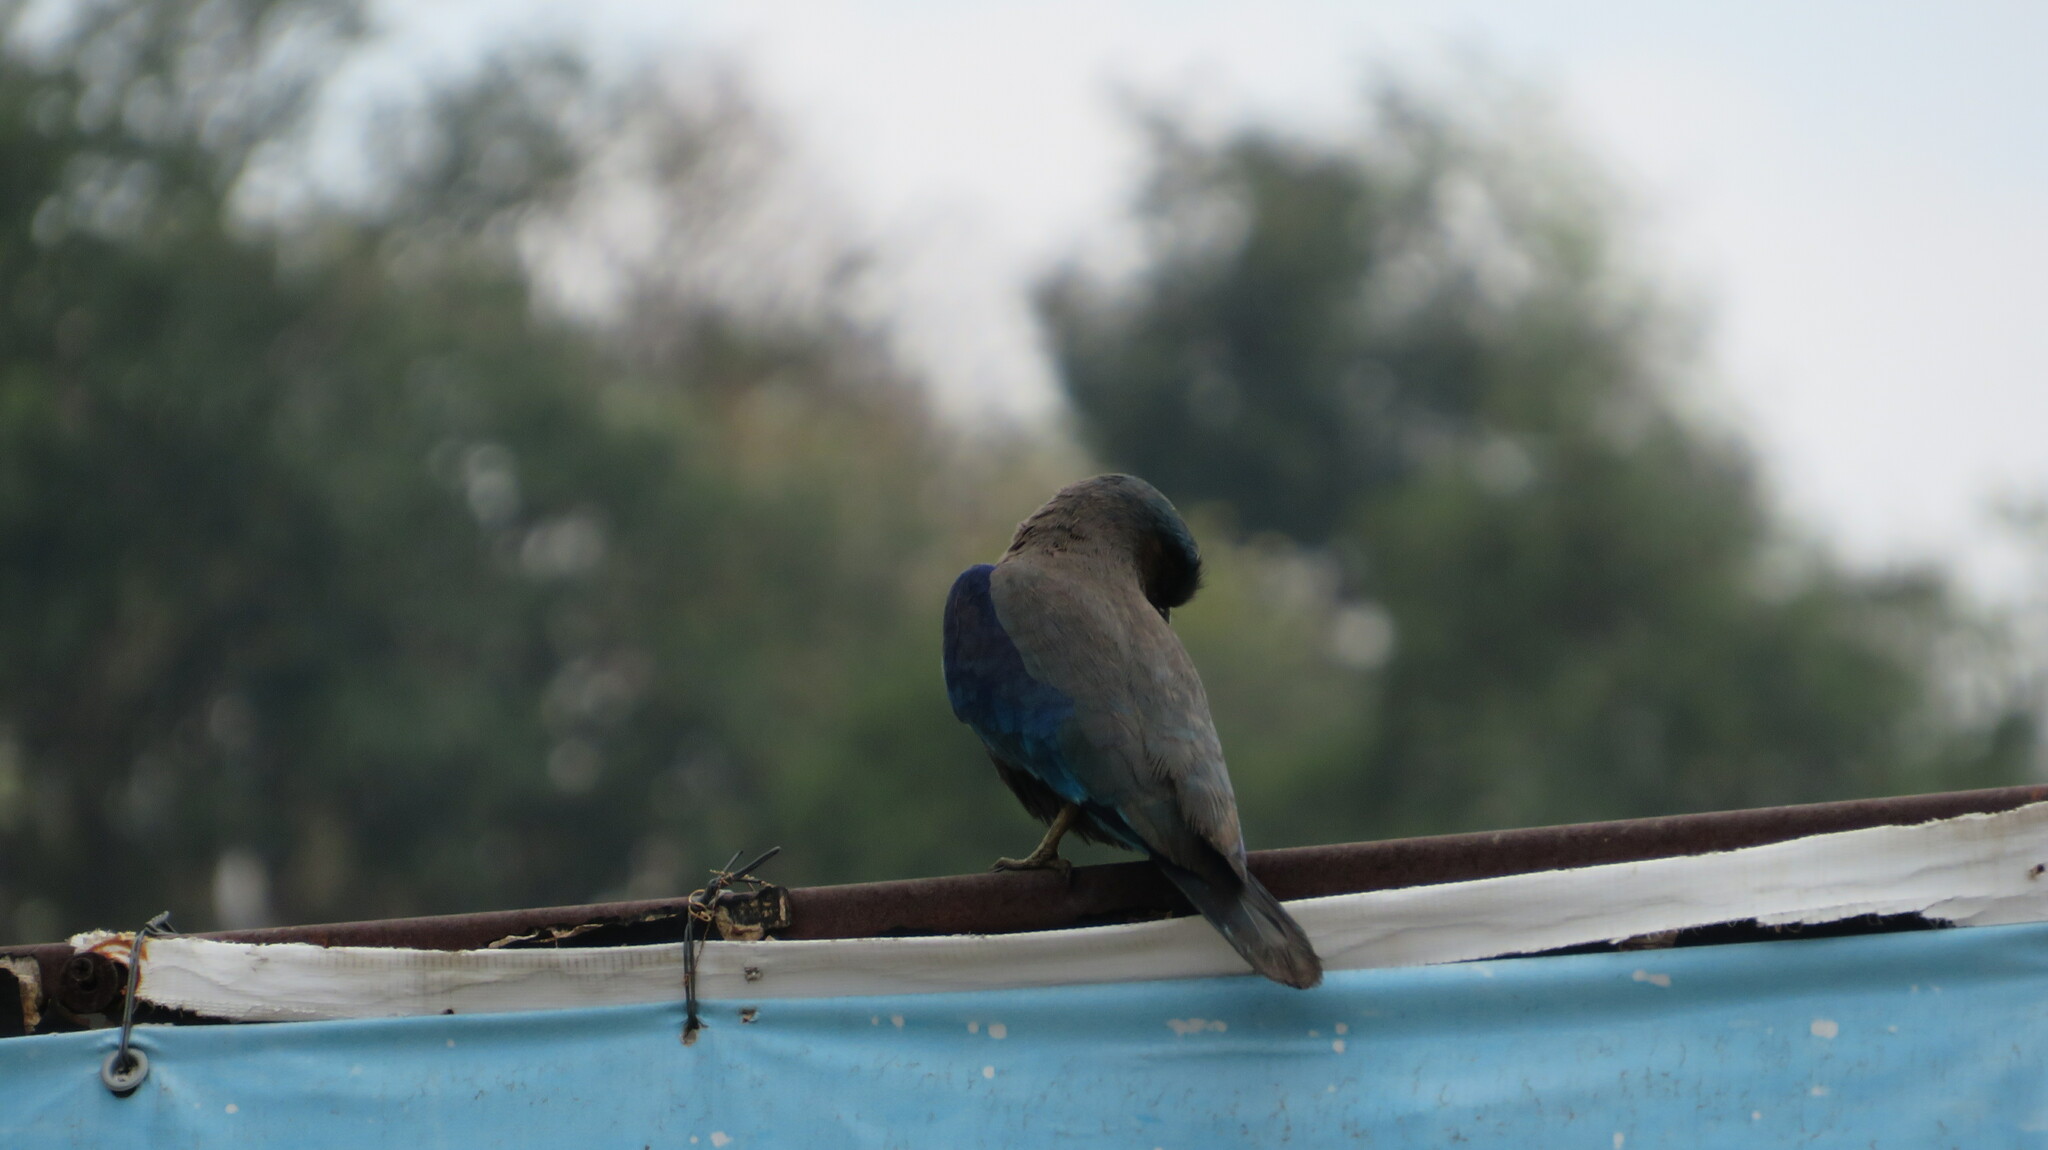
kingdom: Animalia
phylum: Chordata
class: Aves
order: Coraciiformes
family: Coraciidae
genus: Coracias
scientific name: Coracias affinis
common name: Indochinese roller
